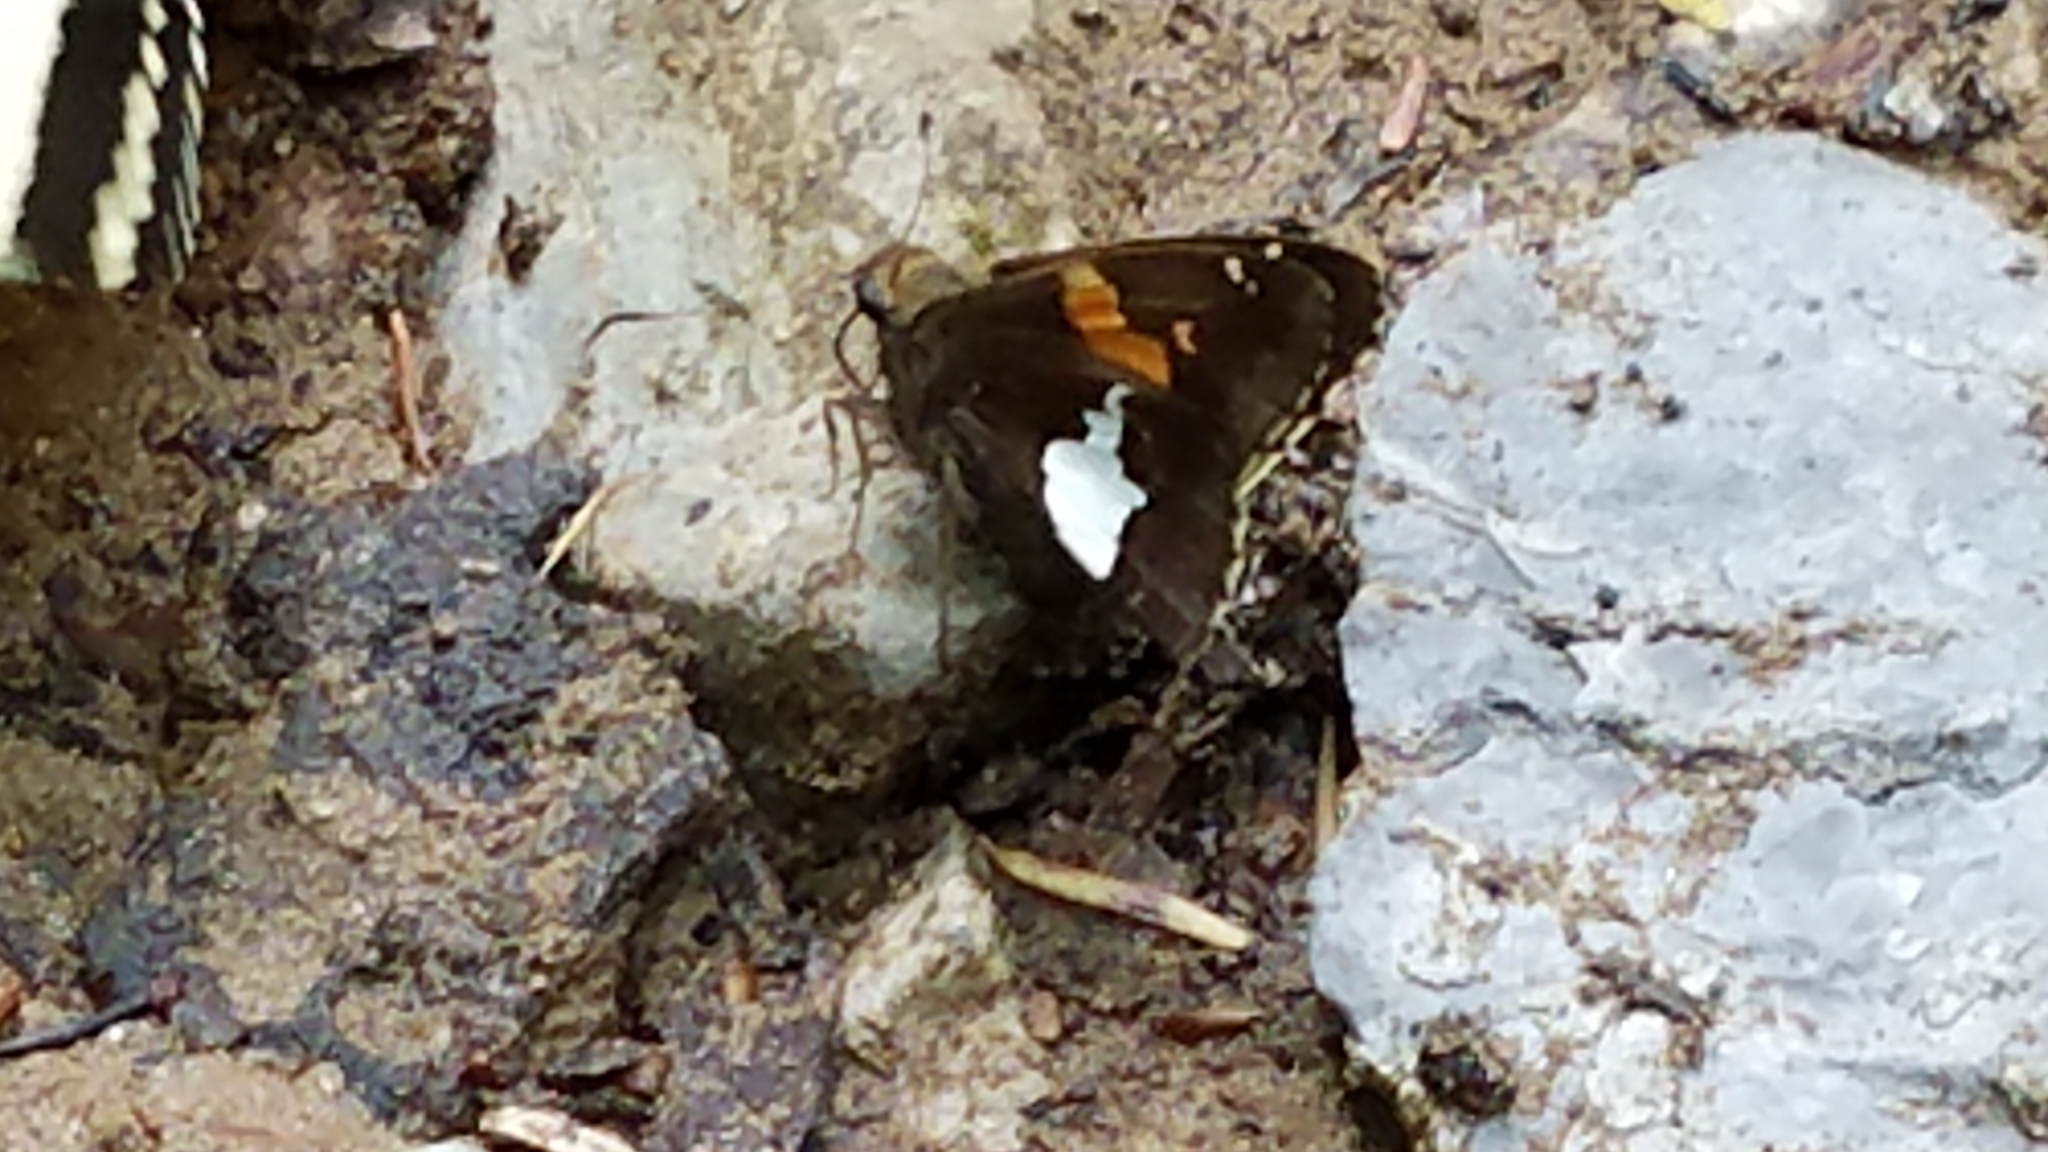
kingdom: Animalia
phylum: Arthropoda
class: Insecta
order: Lepidoptera
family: Hesperiidae
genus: Epargyreus
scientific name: Epargyreus clarus
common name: Silver-spotted skipper
